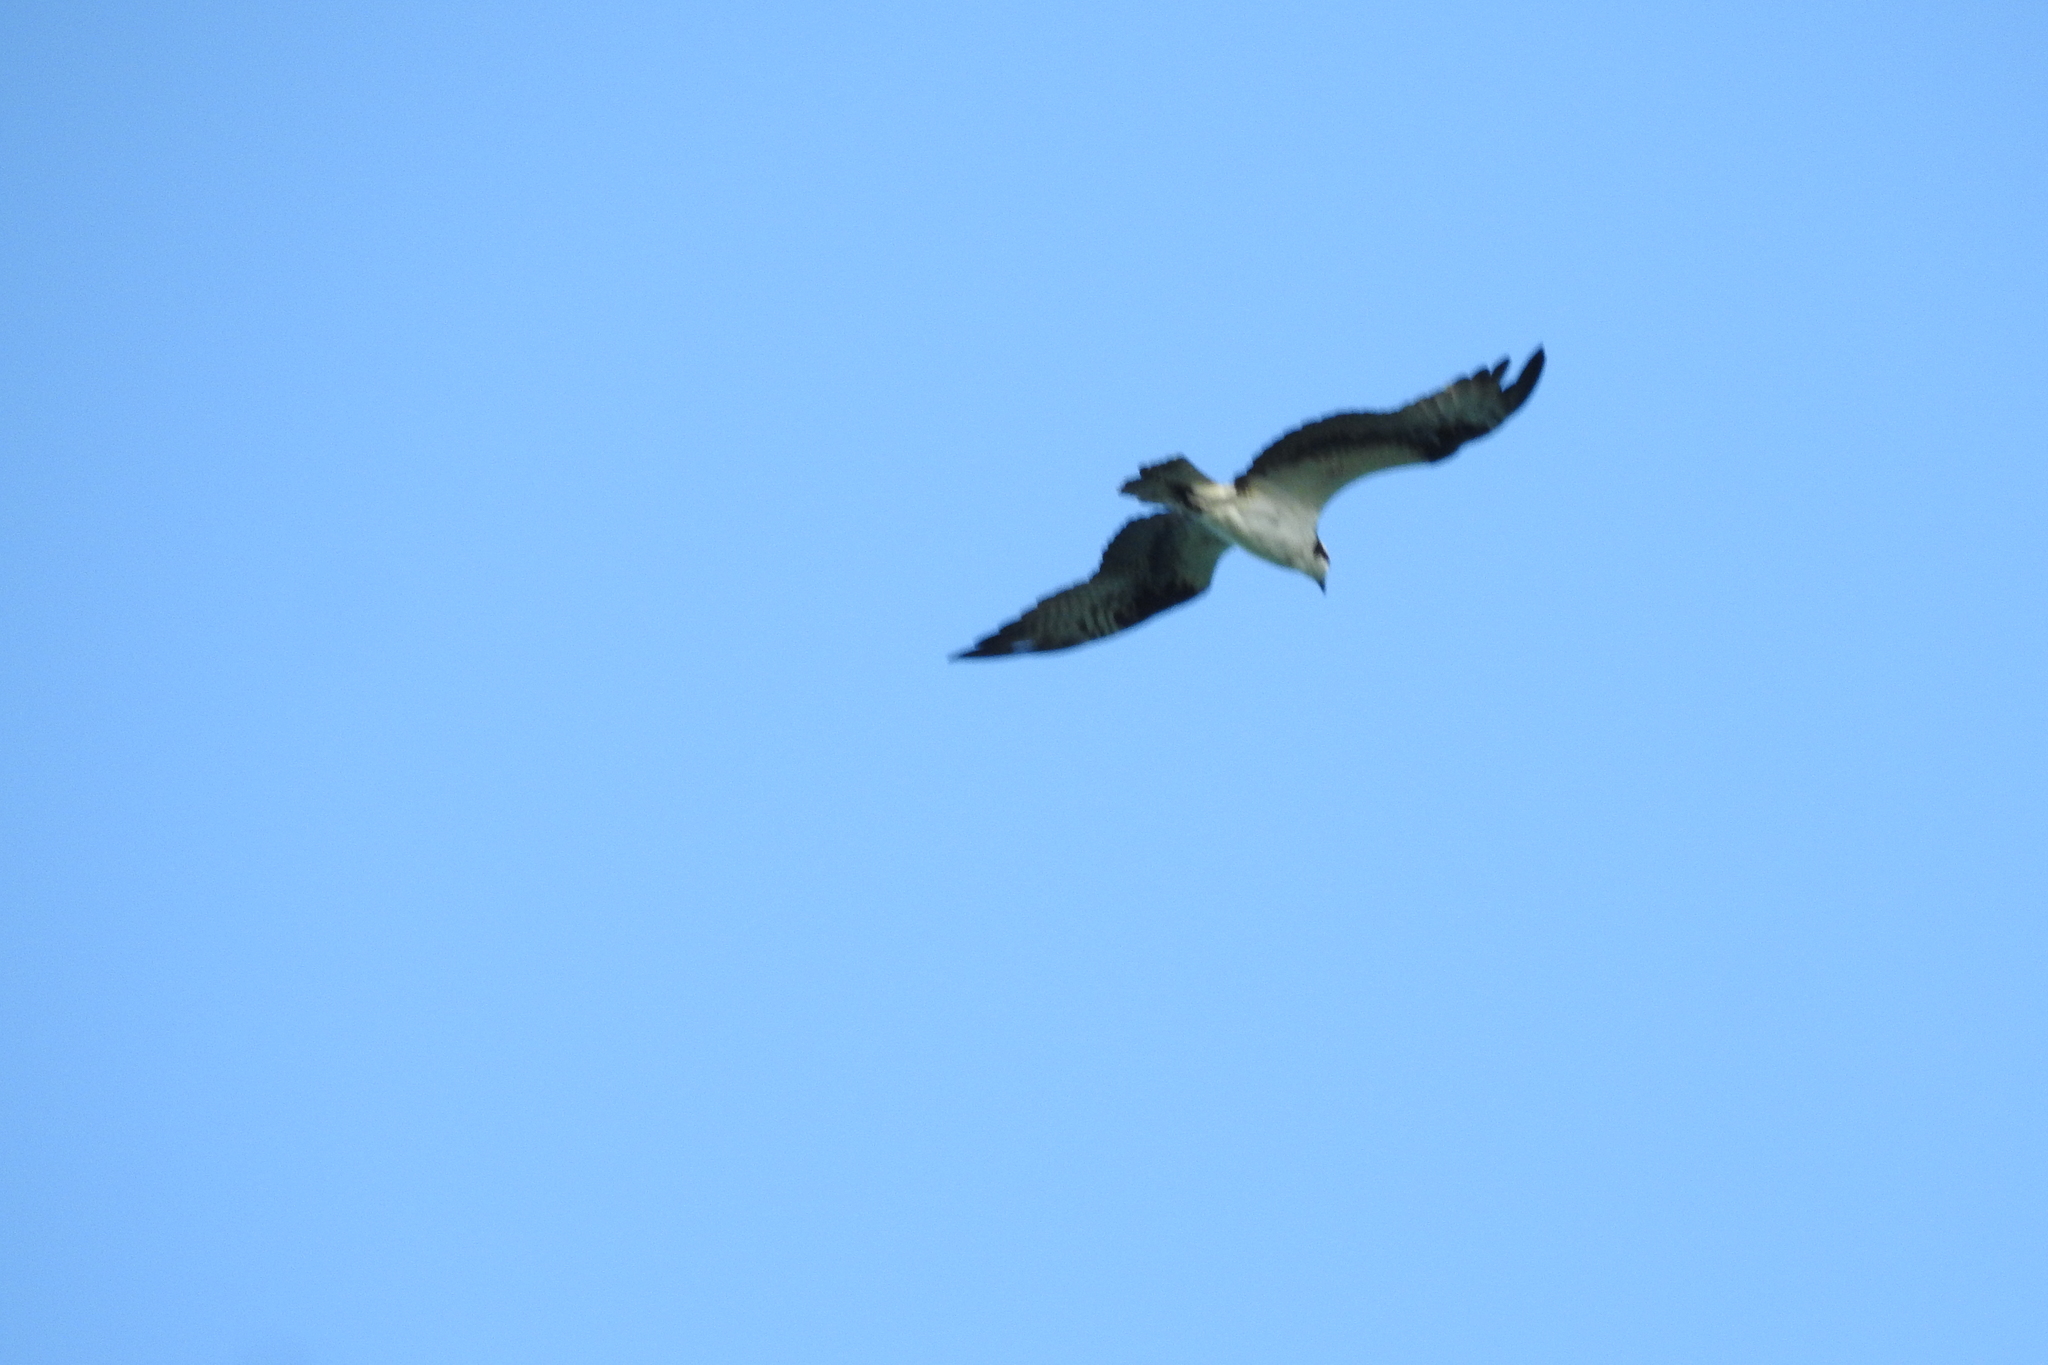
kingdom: Animalia
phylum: Chordata
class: Aves
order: Accipitriformes
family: Pandionidae
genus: Pandion
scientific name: Pandion haliaetus
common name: Osprey
